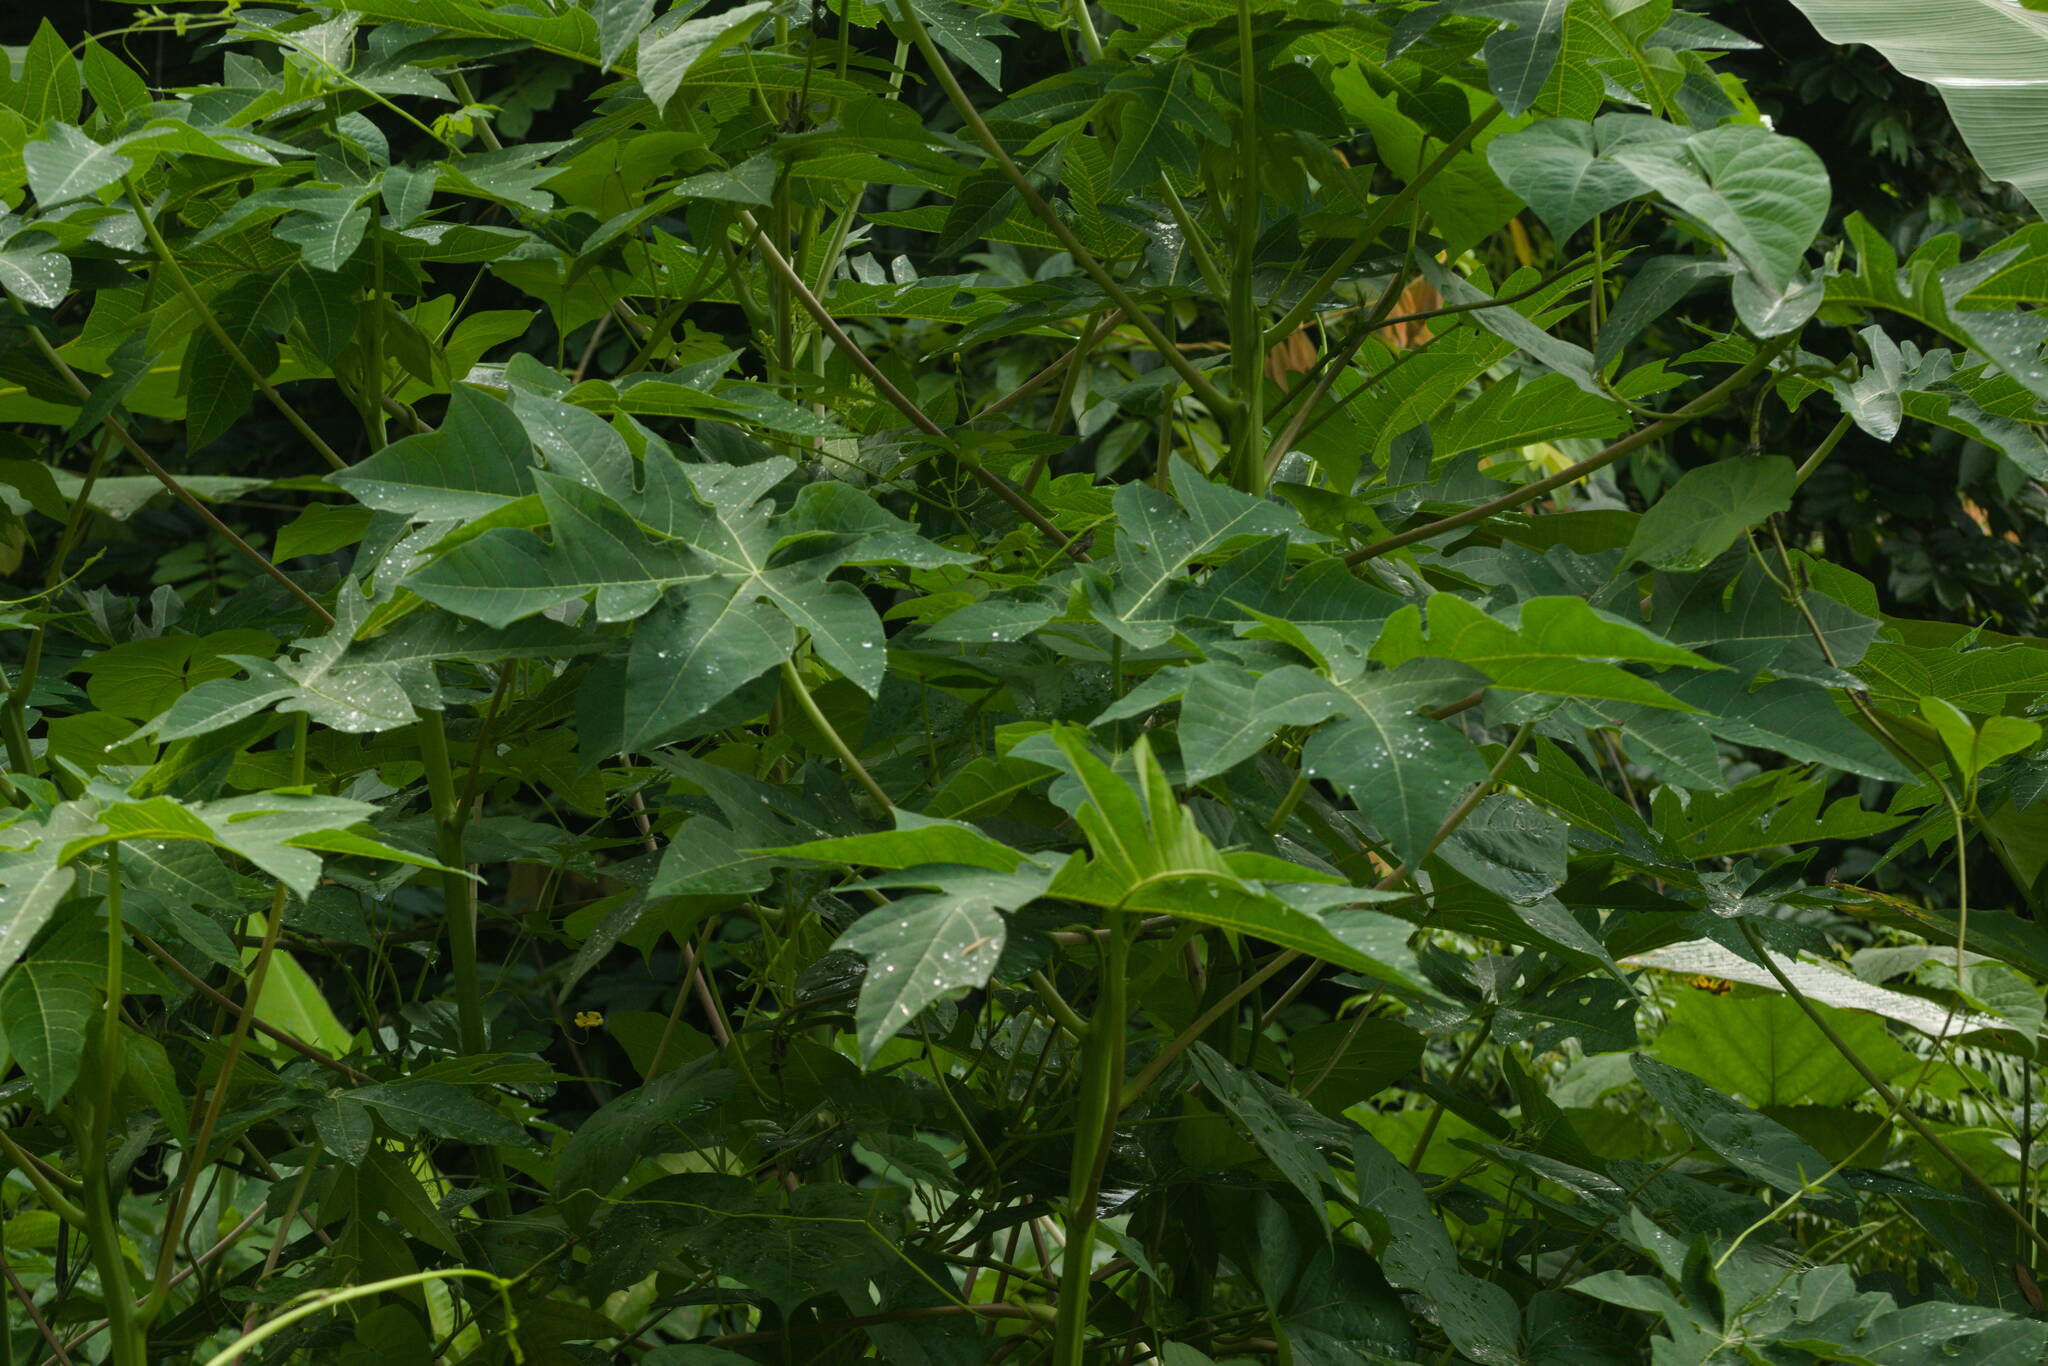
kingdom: Plantae
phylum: Tracheophyta
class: Magnoliopsida
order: Brassicales
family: Caricaceae
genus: Carica
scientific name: Carica papaya
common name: Papaya
